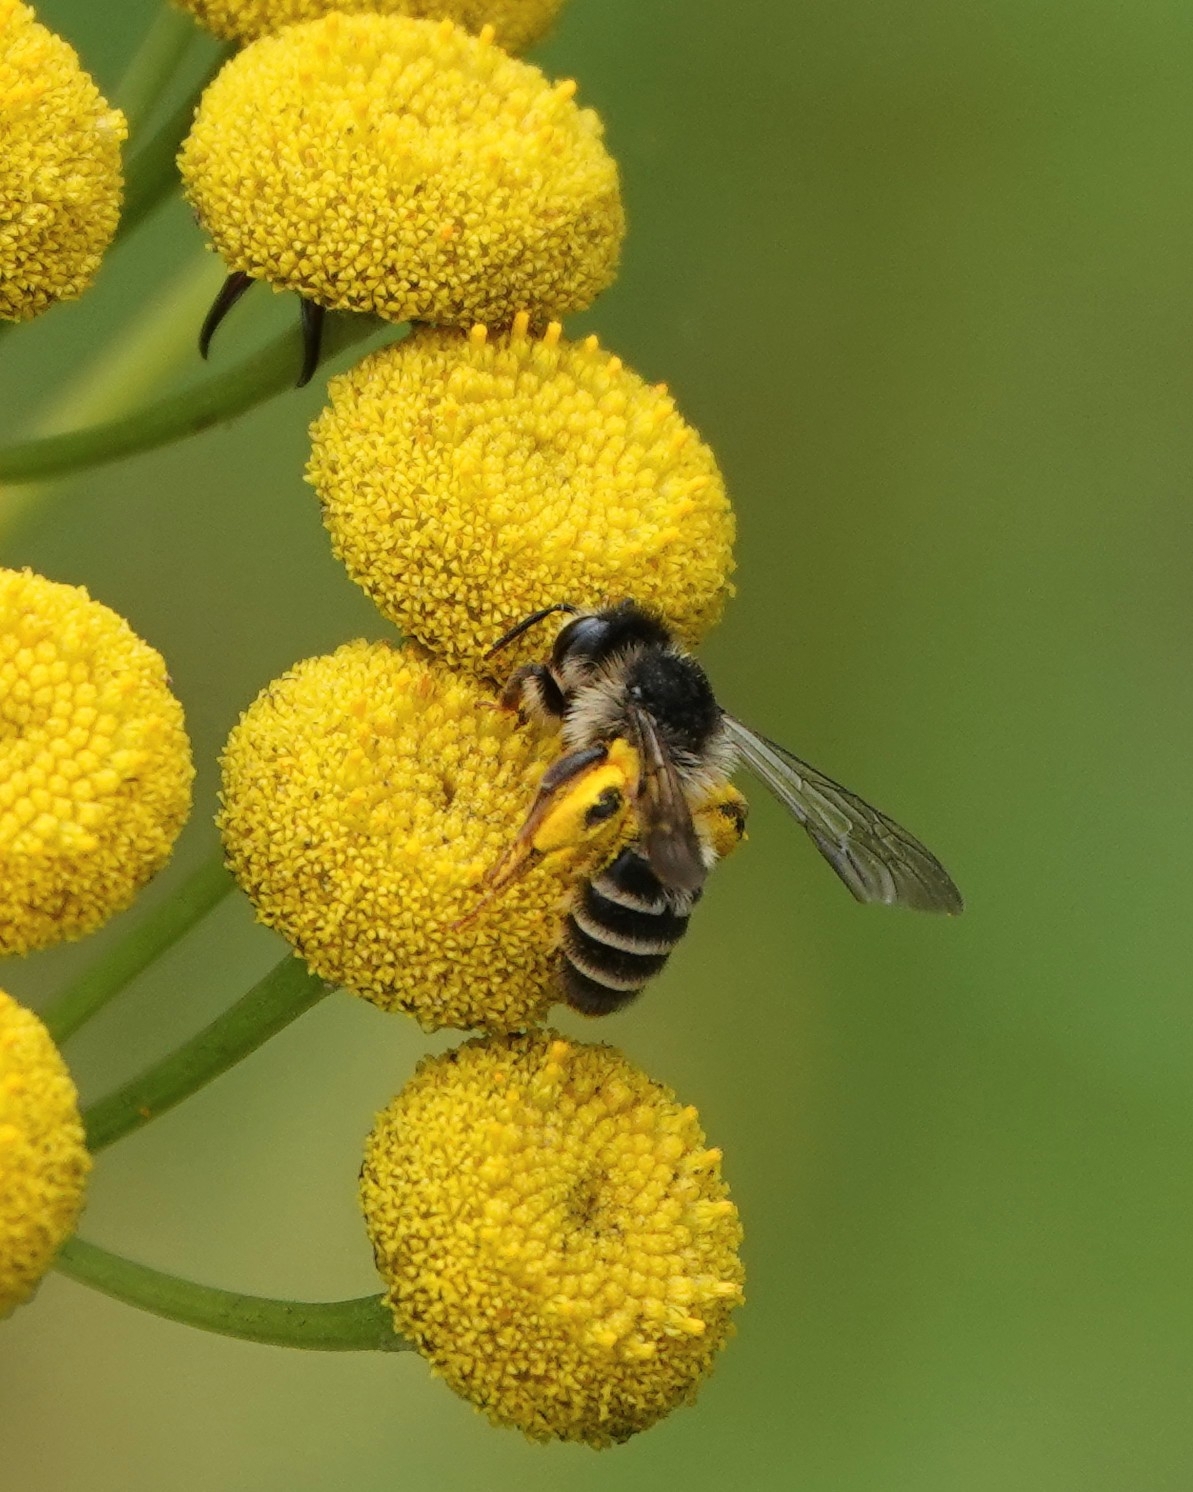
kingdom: Animalia
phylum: Arthropoda
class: Insecta
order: Hymenoptera
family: Andrenidae
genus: Andrena
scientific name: Andrena denticulata
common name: Grey-banded mining bee
